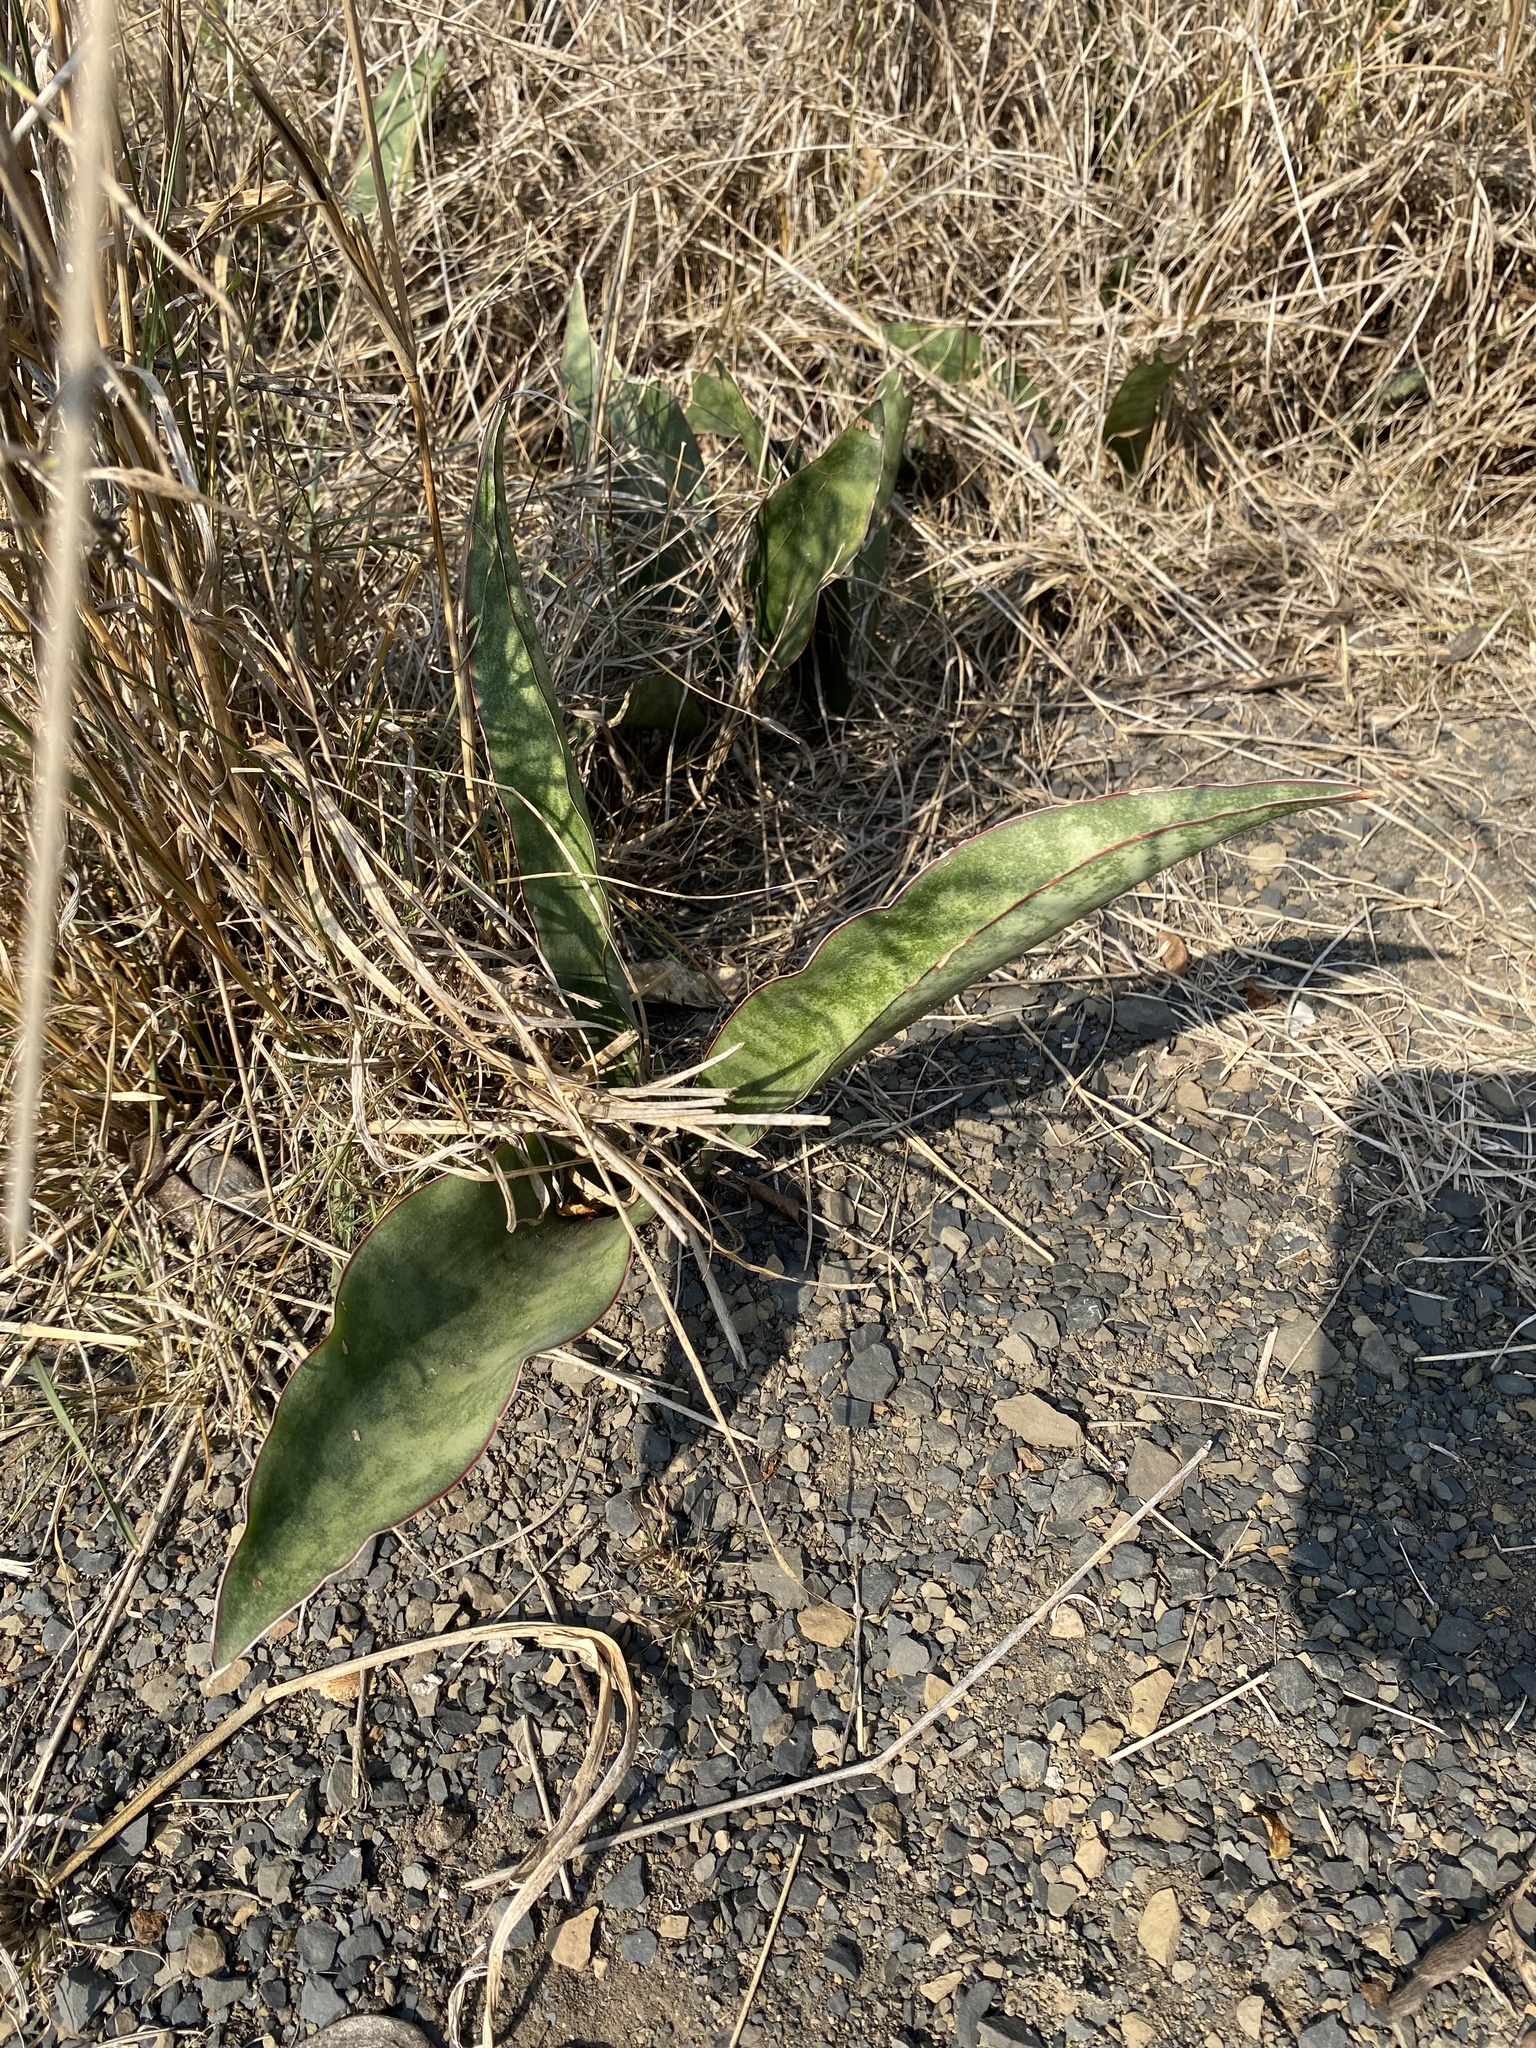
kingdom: Plantae
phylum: Tracheophyta
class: Liliopsida
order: Asparagales
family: Asparagaceae
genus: Dracaena
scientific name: Dracaena hyacinthoides
